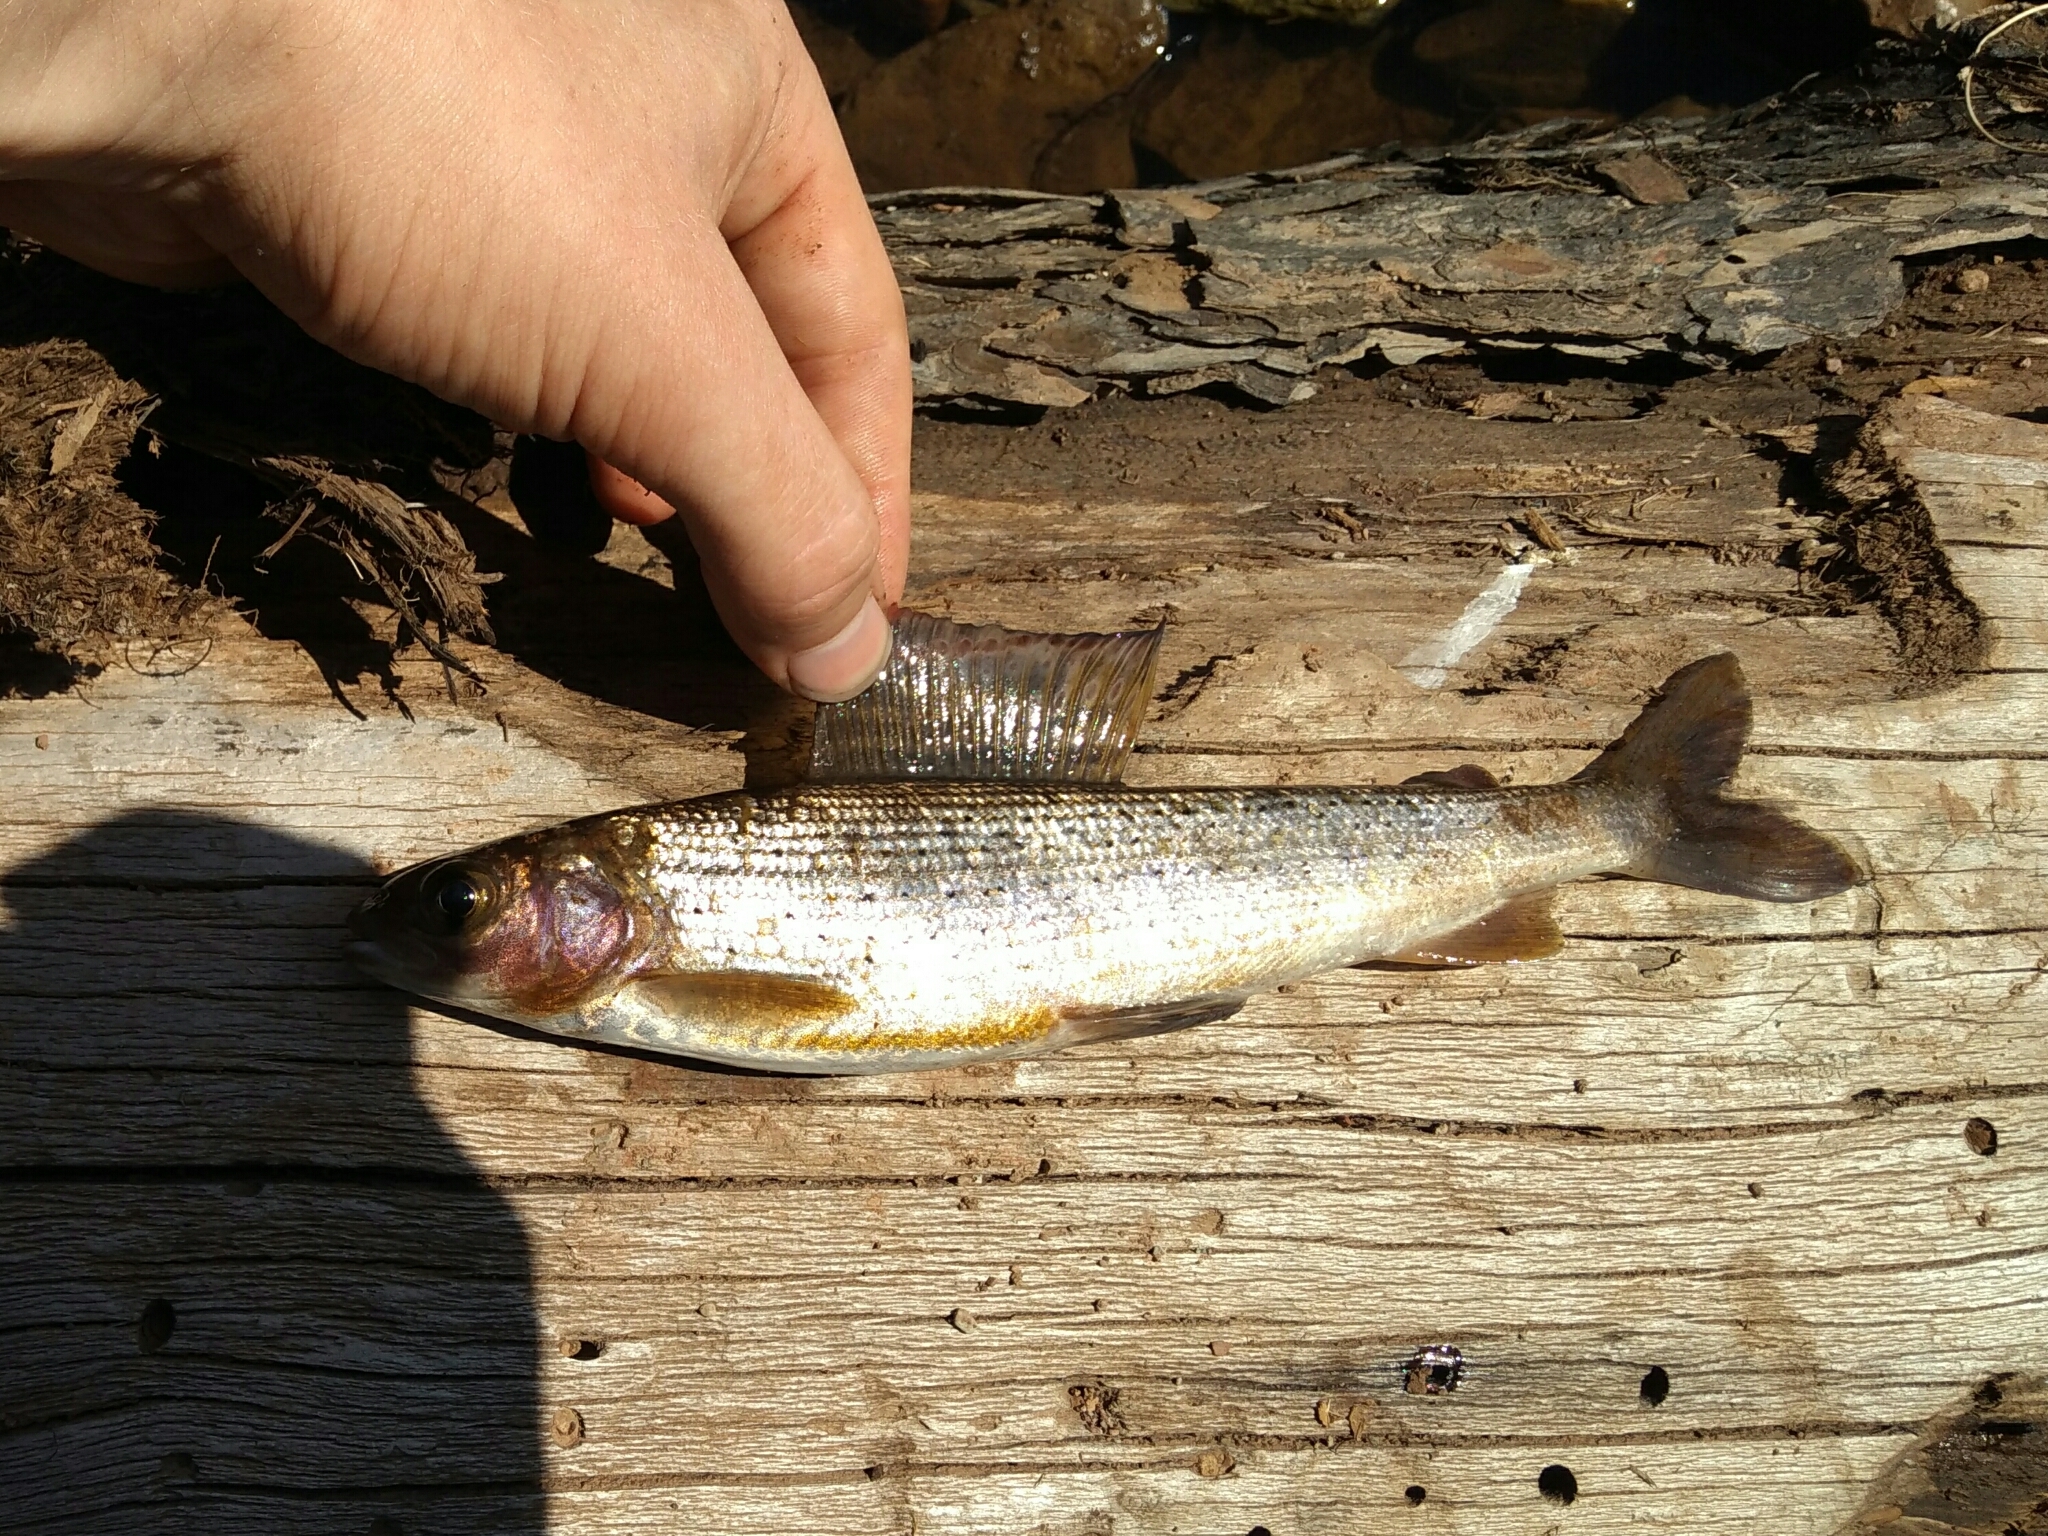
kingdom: Animalia
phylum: Chordata
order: Salmoniformes
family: Salmonidae
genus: Thymallus
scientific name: Thymallus baicalolenensis
